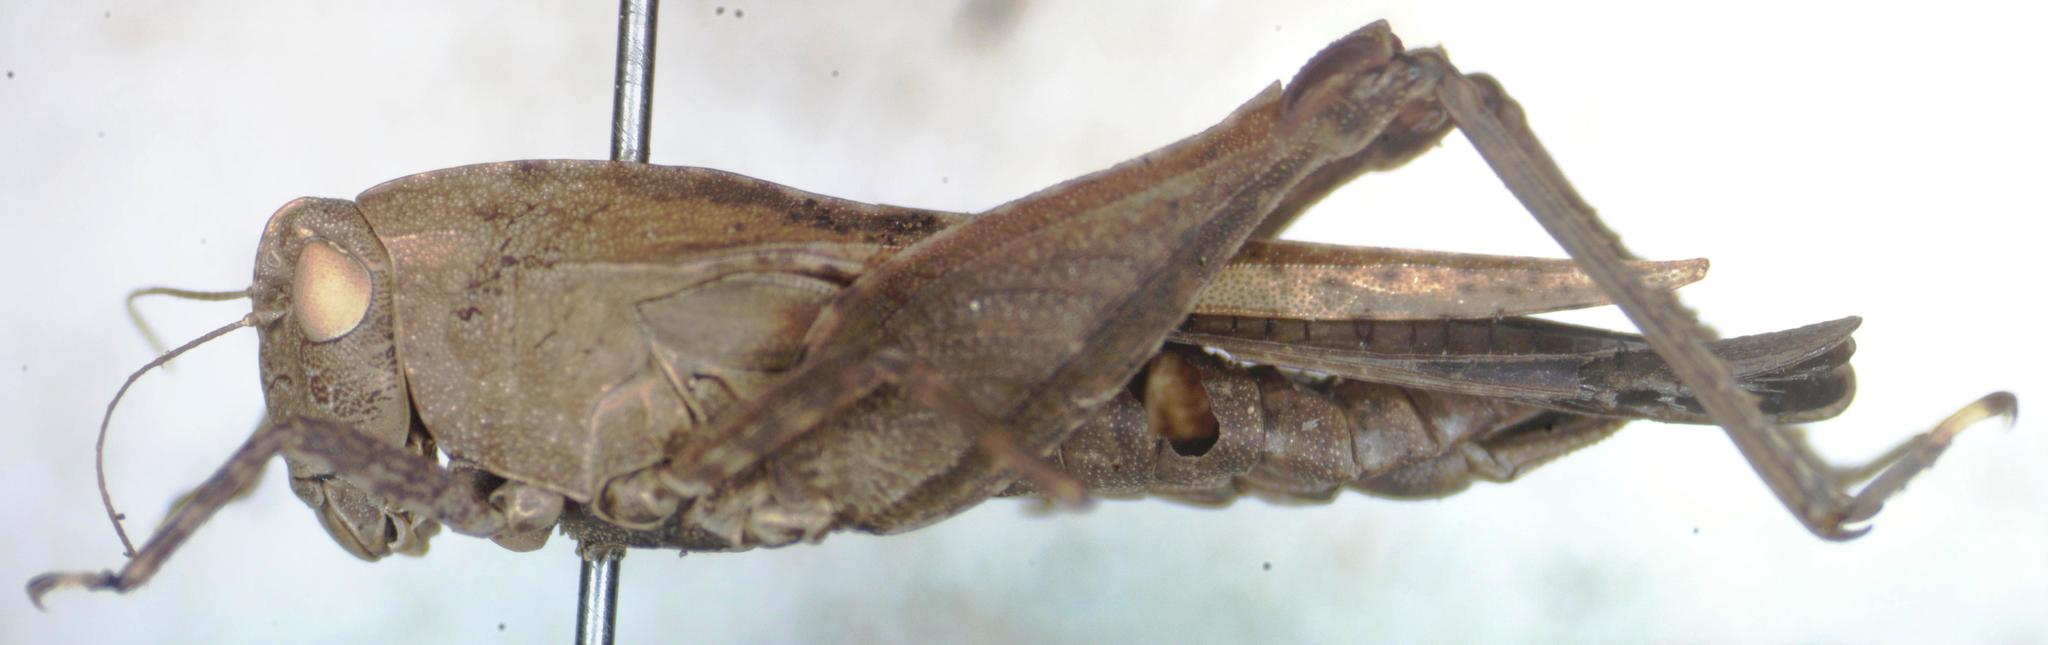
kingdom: Animalia
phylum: Arthropoda
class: Insecta
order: Orthoptera
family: Tetrigidae
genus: Tettigidea
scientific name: Tettigidea laterale
